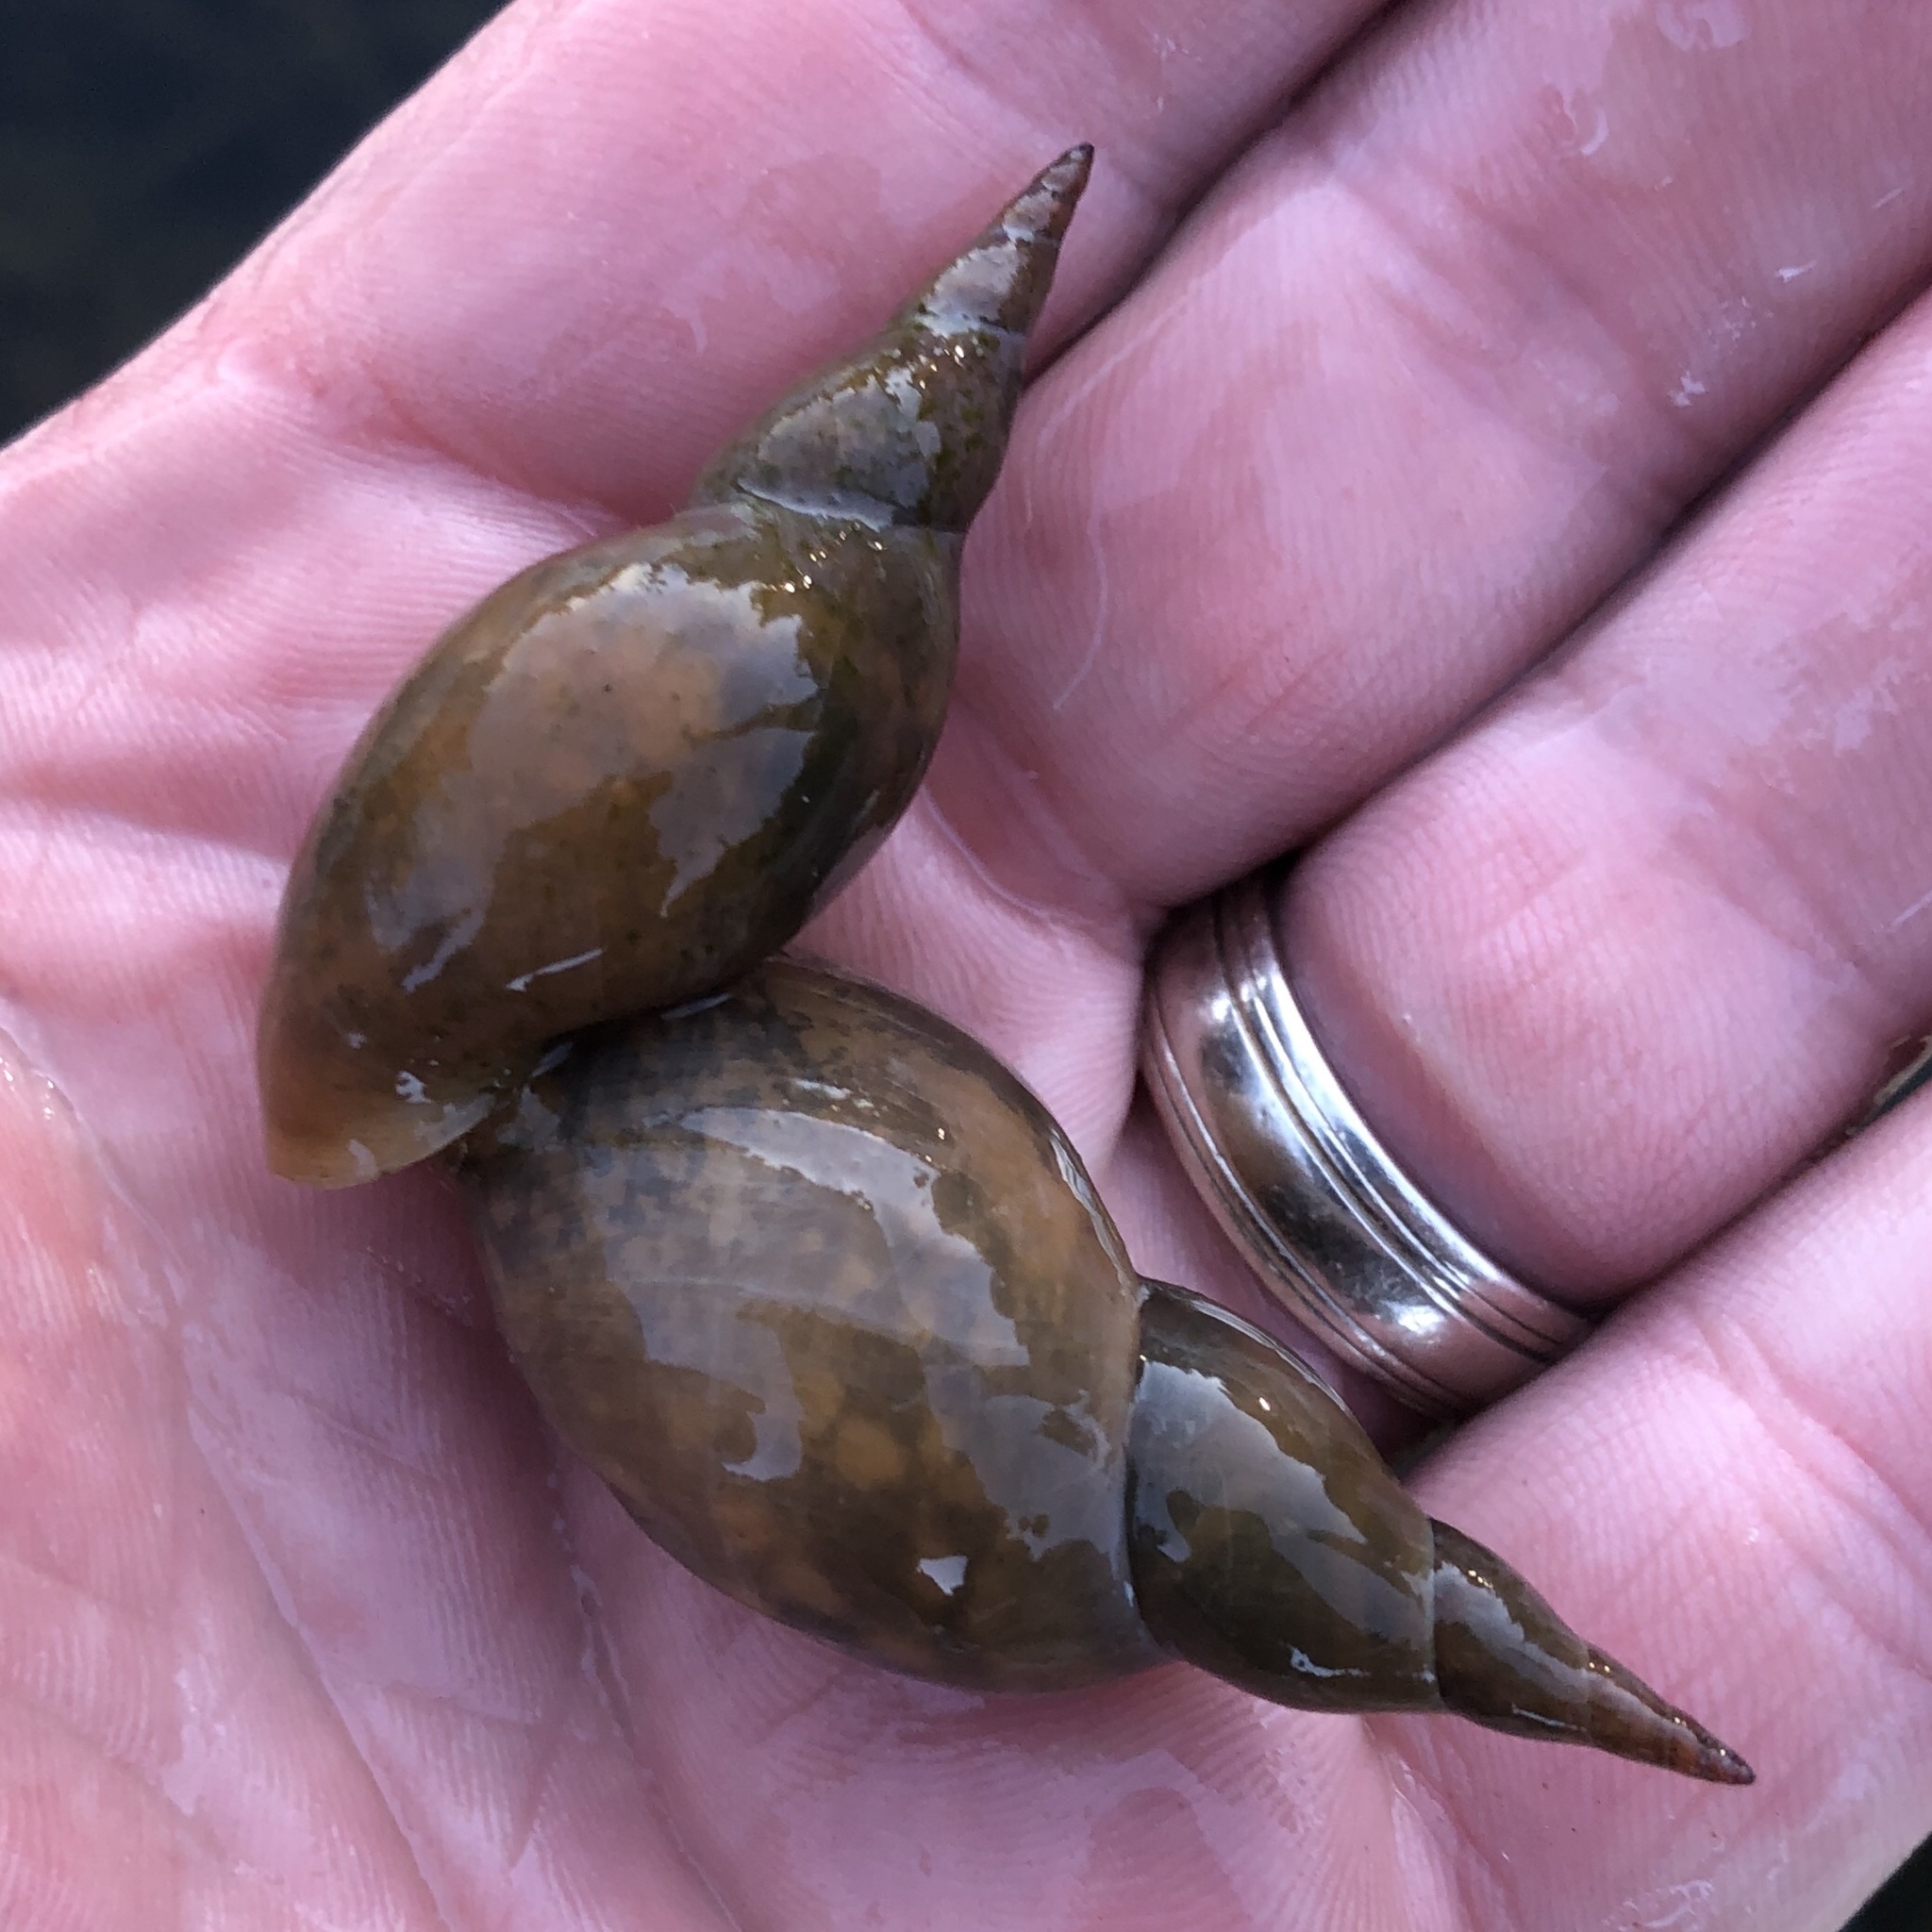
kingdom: Animalia
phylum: Mollusca
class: Gastropoda
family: Lymnaeidae
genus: Lymnaea
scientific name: Lymnaea stagnalis
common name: Great pond snail
